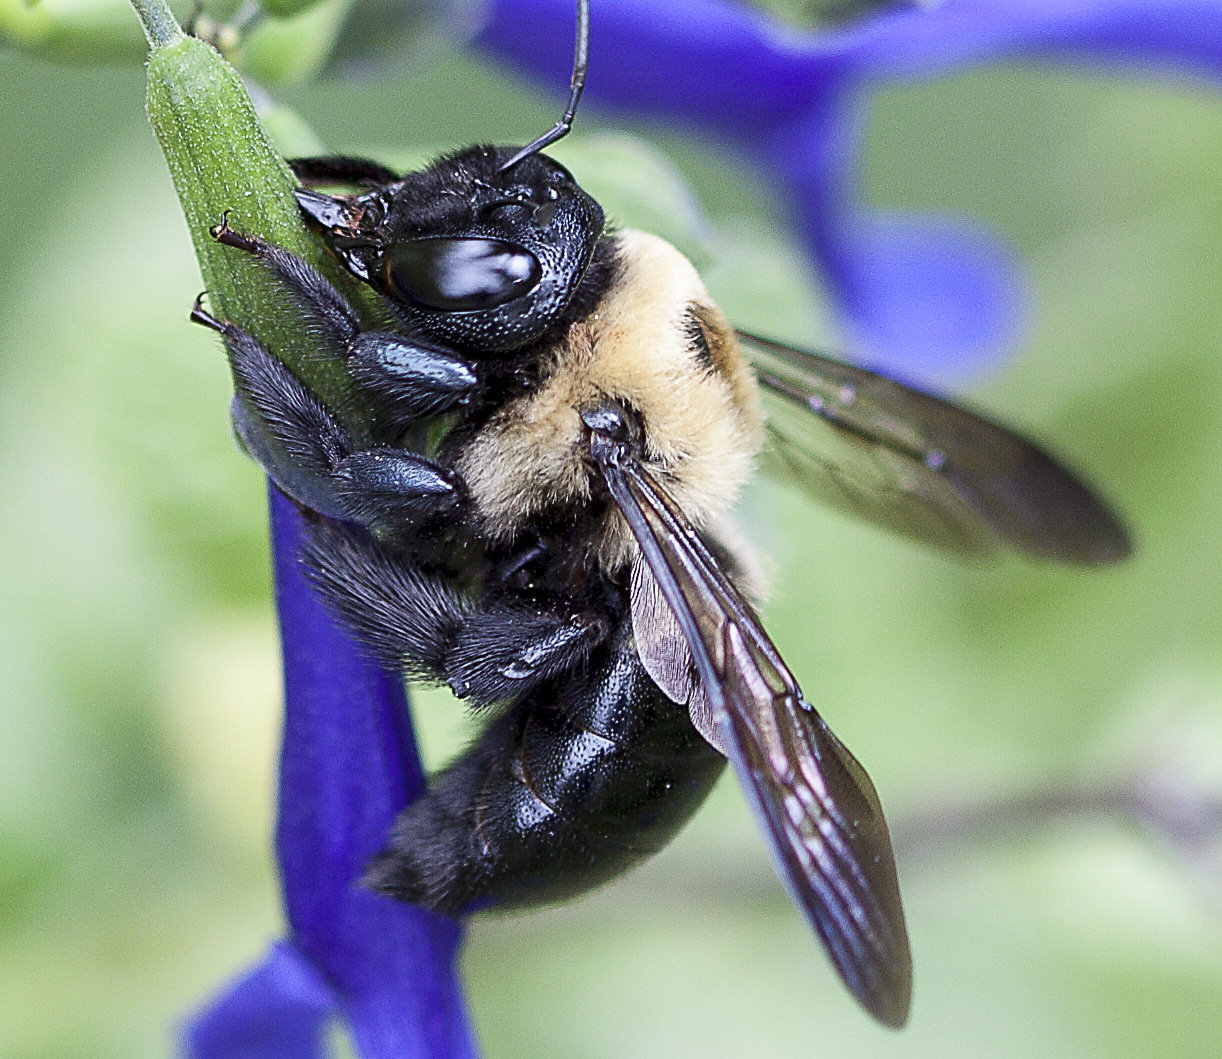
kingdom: Animalia
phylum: Arthropoda
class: Insecta
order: Hymenoptera
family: Apidae
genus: Xylocopa
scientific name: Xylocopa virginica
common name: Carpenter bee
